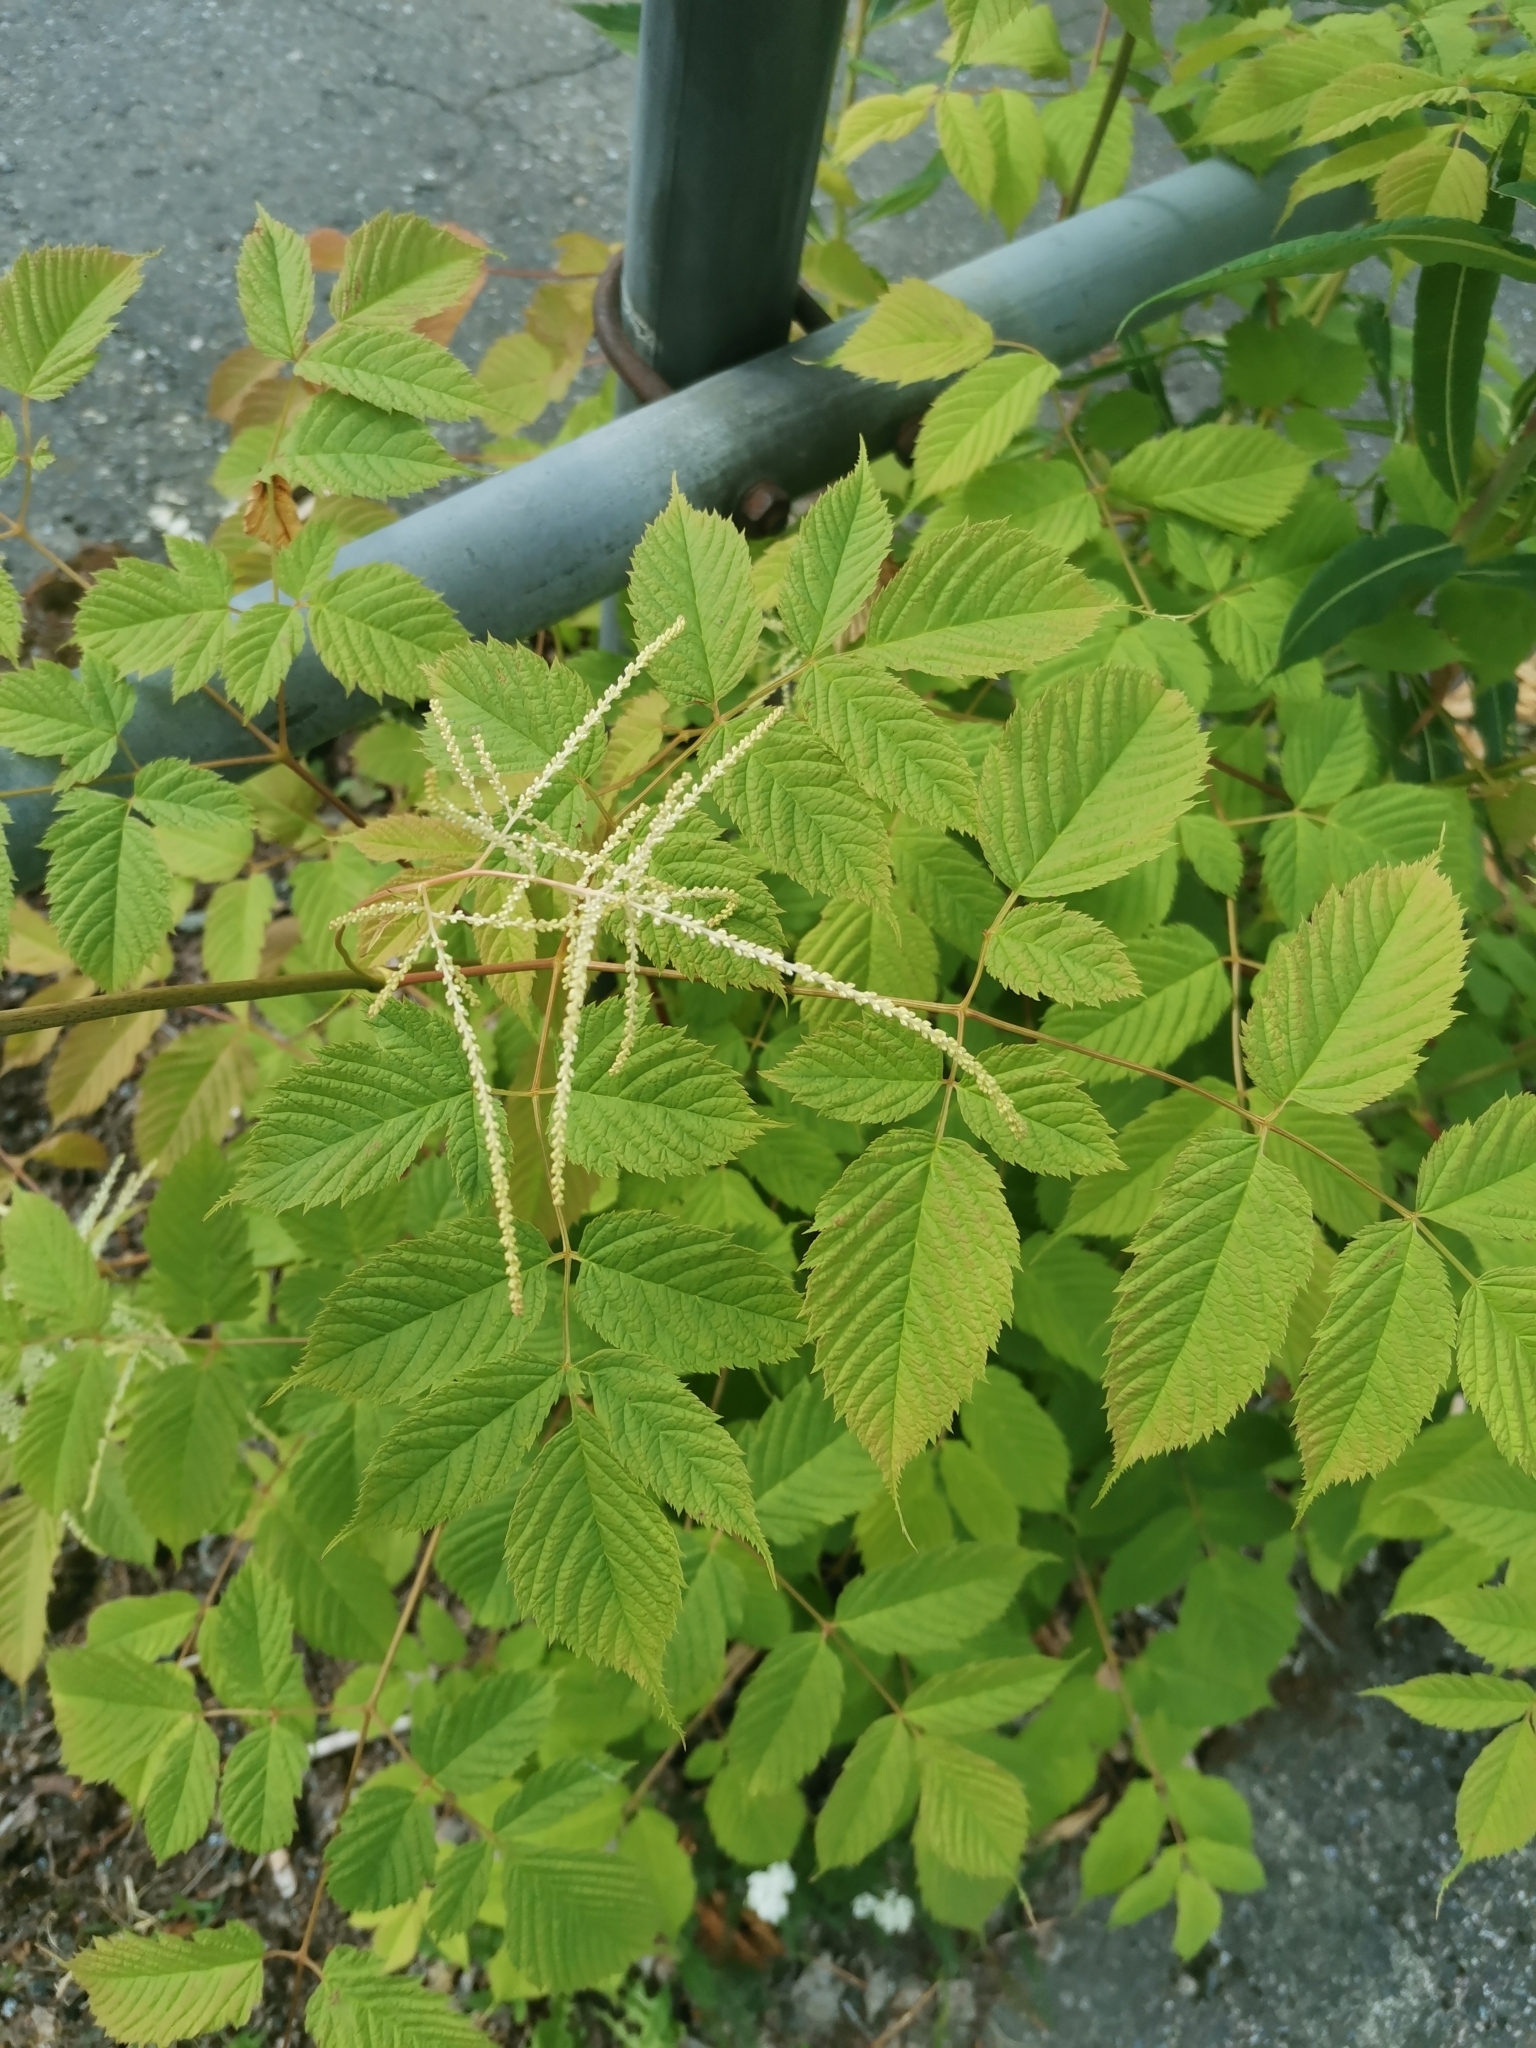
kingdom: Plantae
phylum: Tracheophyta
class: Magnoliopsida
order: Rosales
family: Rosaceae
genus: Aruncus
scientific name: Aruncus dioicus
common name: Buck's-beard
